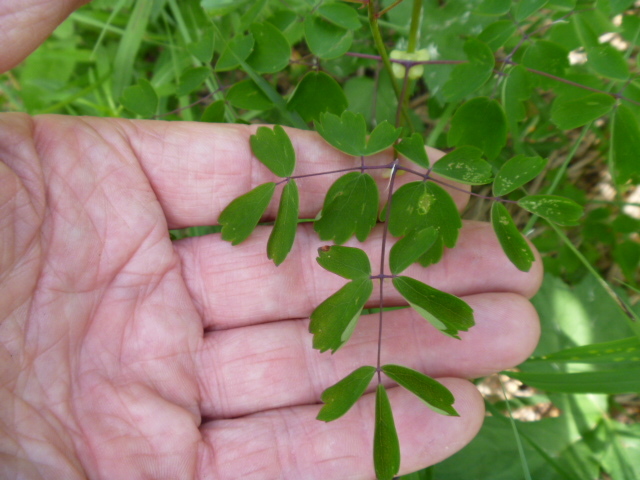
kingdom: Plantae
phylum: Tracheophyta
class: Magnoliopsida
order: Ranunculales
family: Ranunculaceae
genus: Thalictrum
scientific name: Thalictrum aquilegiifolium
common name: French meadow-rue
